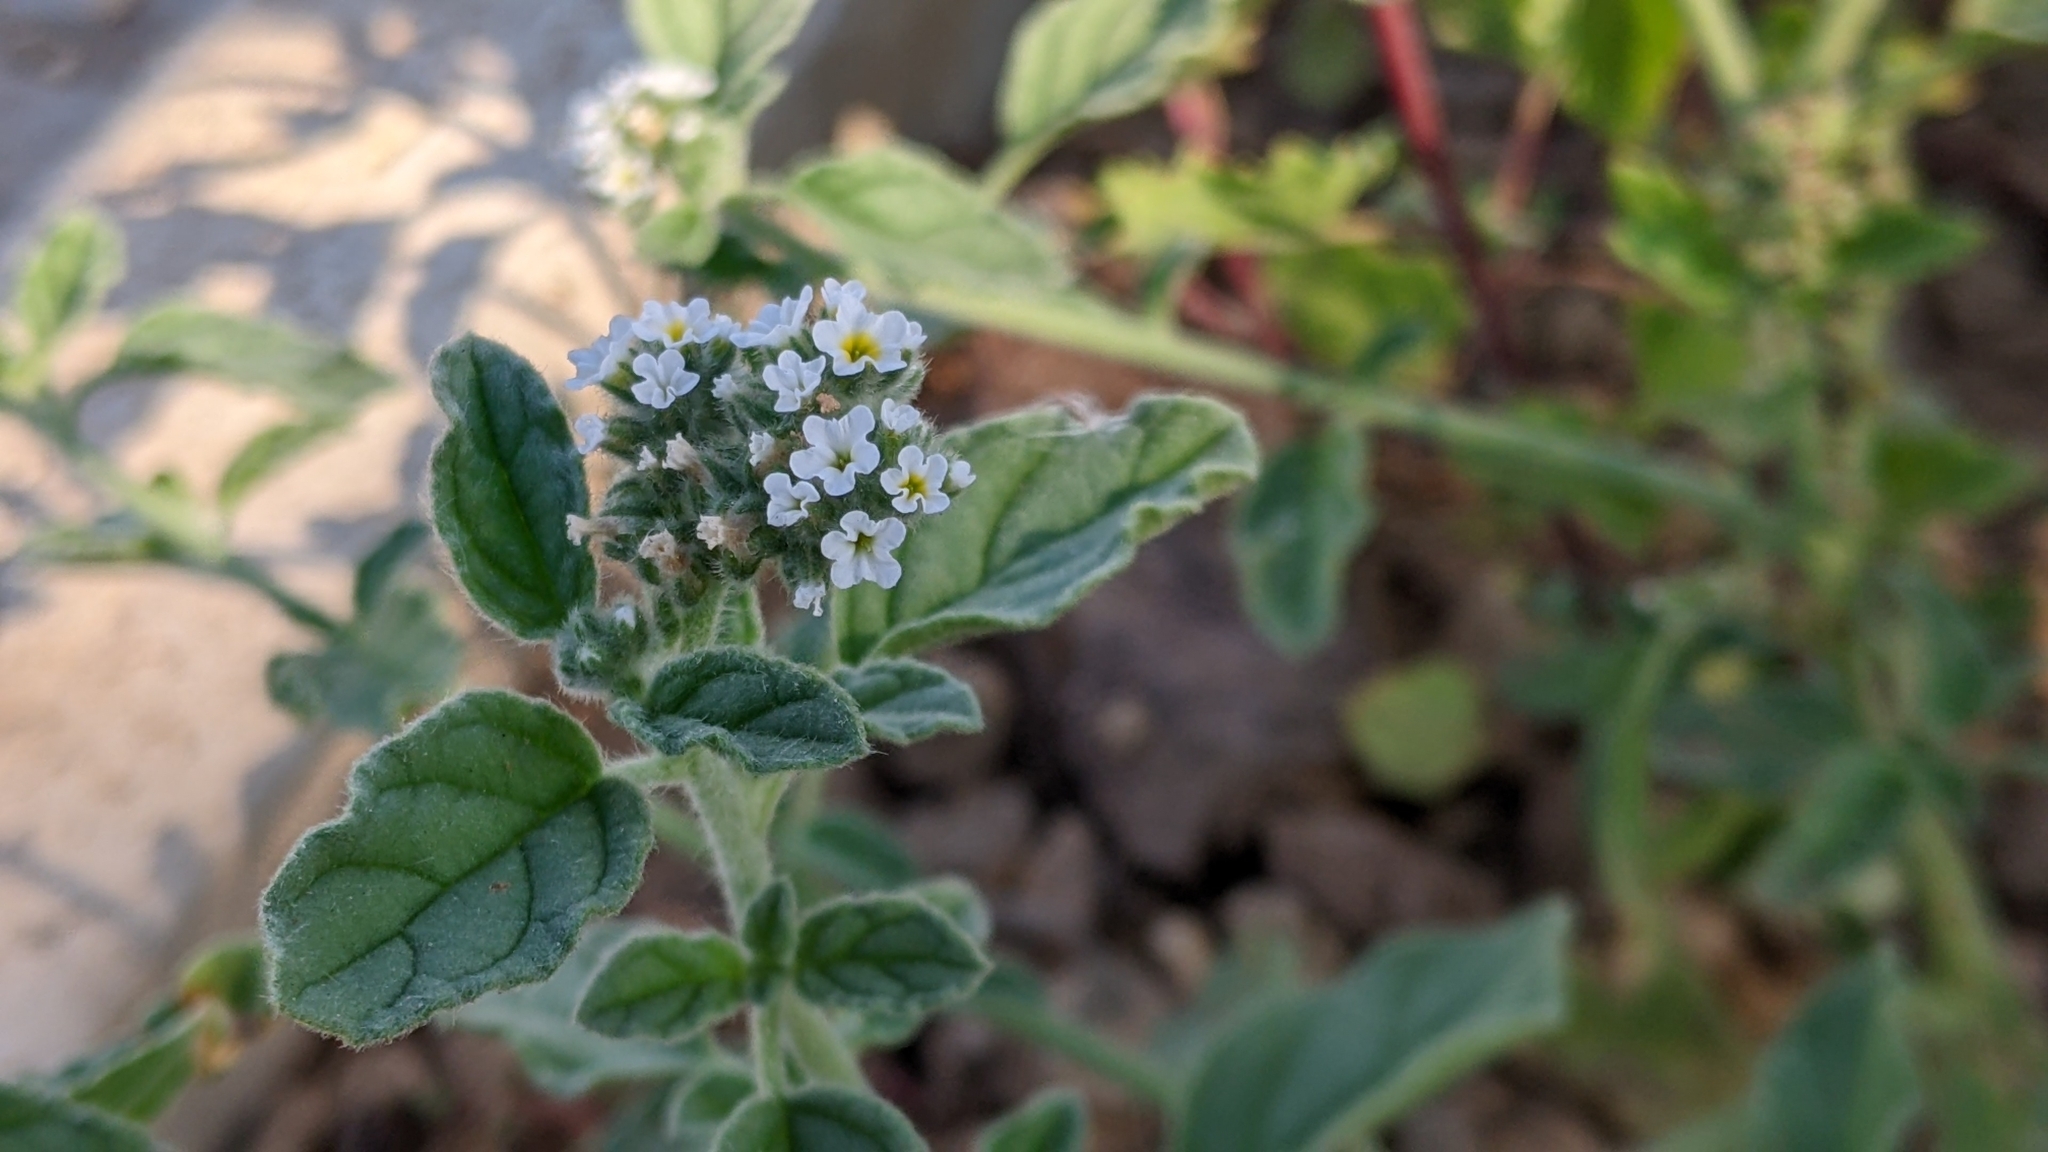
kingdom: Plantae
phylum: Tracheophyta
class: Magnoliopsida
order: Boraginales
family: Heliotropiaceae
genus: Heliotropium
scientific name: Heliotropium europaeum
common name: European heliotrope
